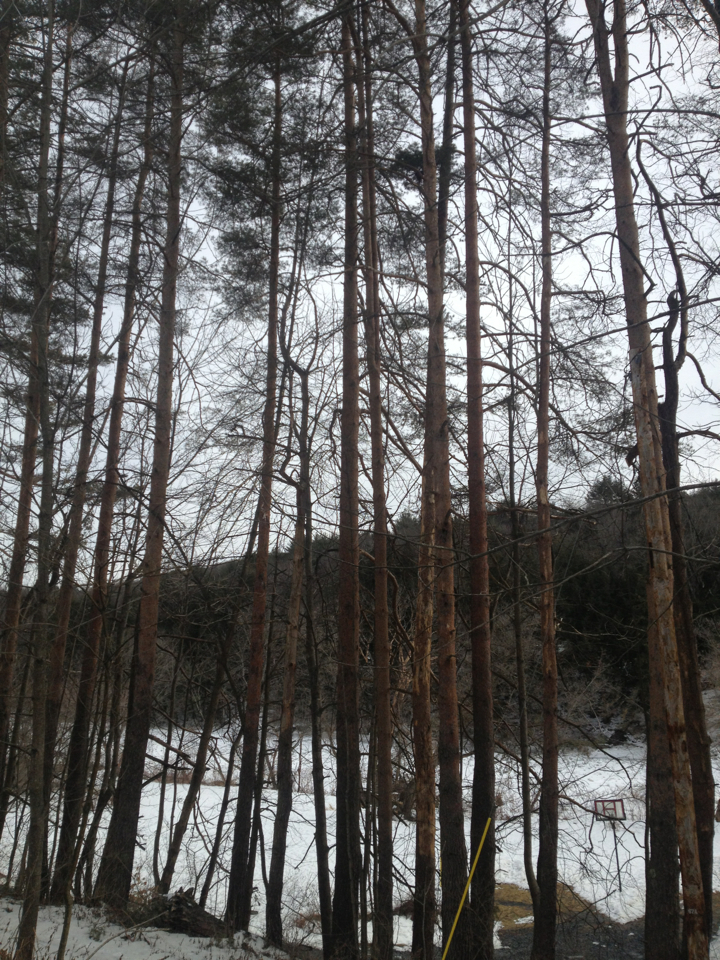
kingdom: Plantae
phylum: Tracheophyta
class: Pinopsida
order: Pinales
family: Pinaceae
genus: Pinus
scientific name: Pinus resinosa
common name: Norway pine
